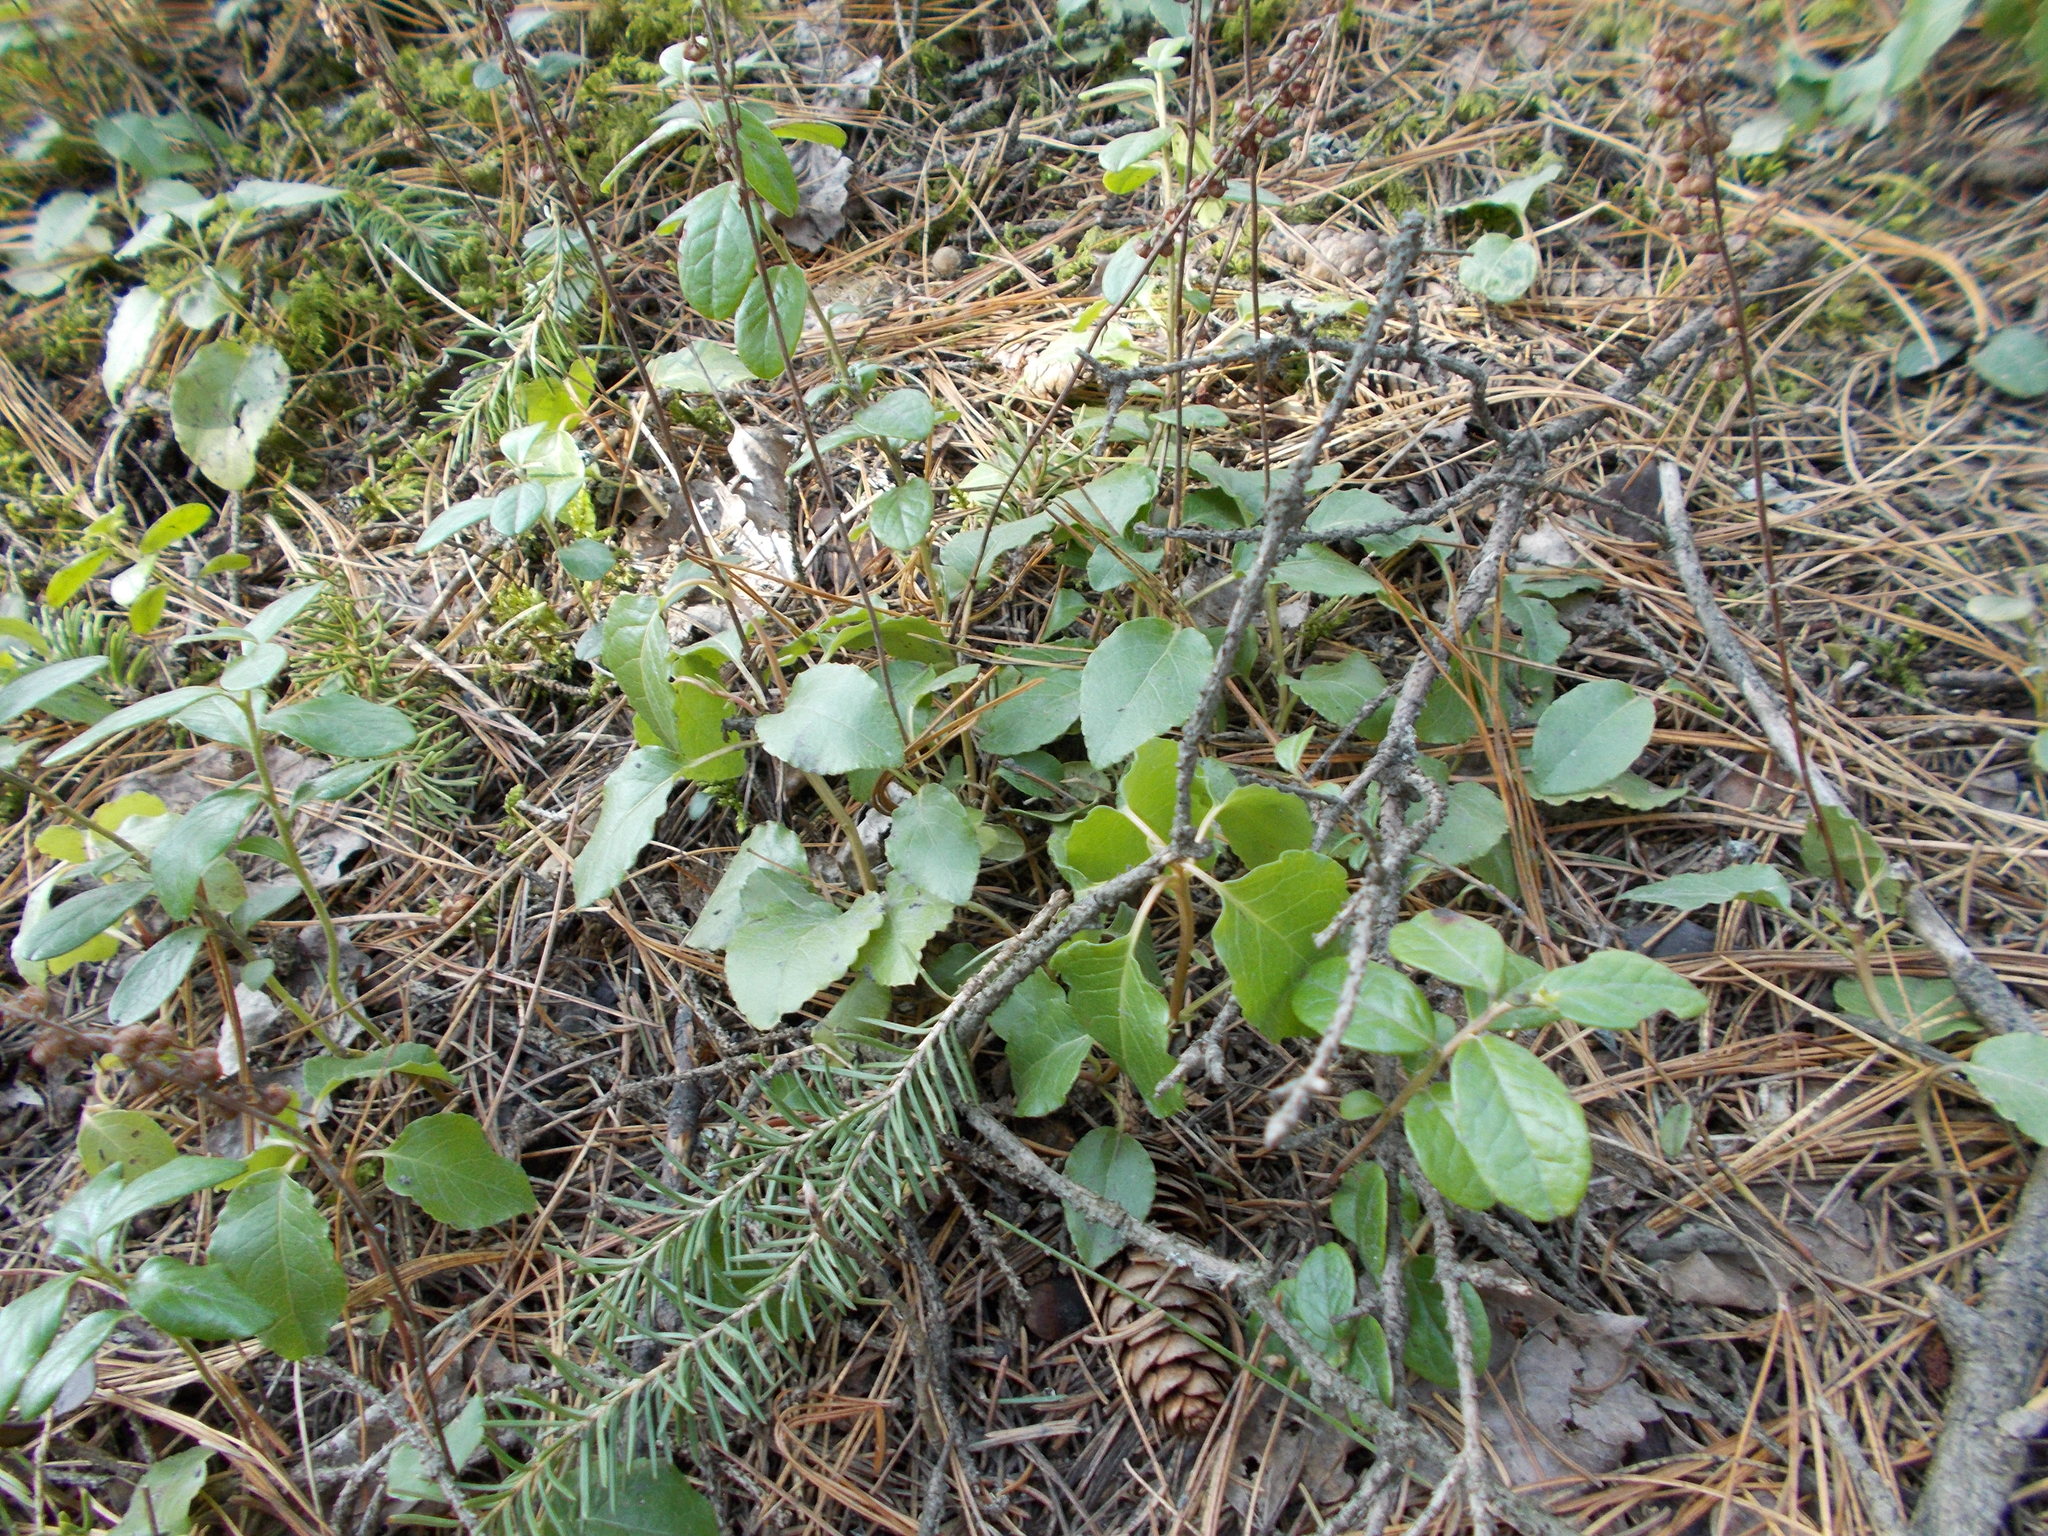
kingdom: Plantae
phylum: Tracheophyta
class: Magnoliopsida
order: Ericales
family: Ericaceae
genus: Orthilia
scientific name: Orthilia secunda
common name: One-sided orthilia
